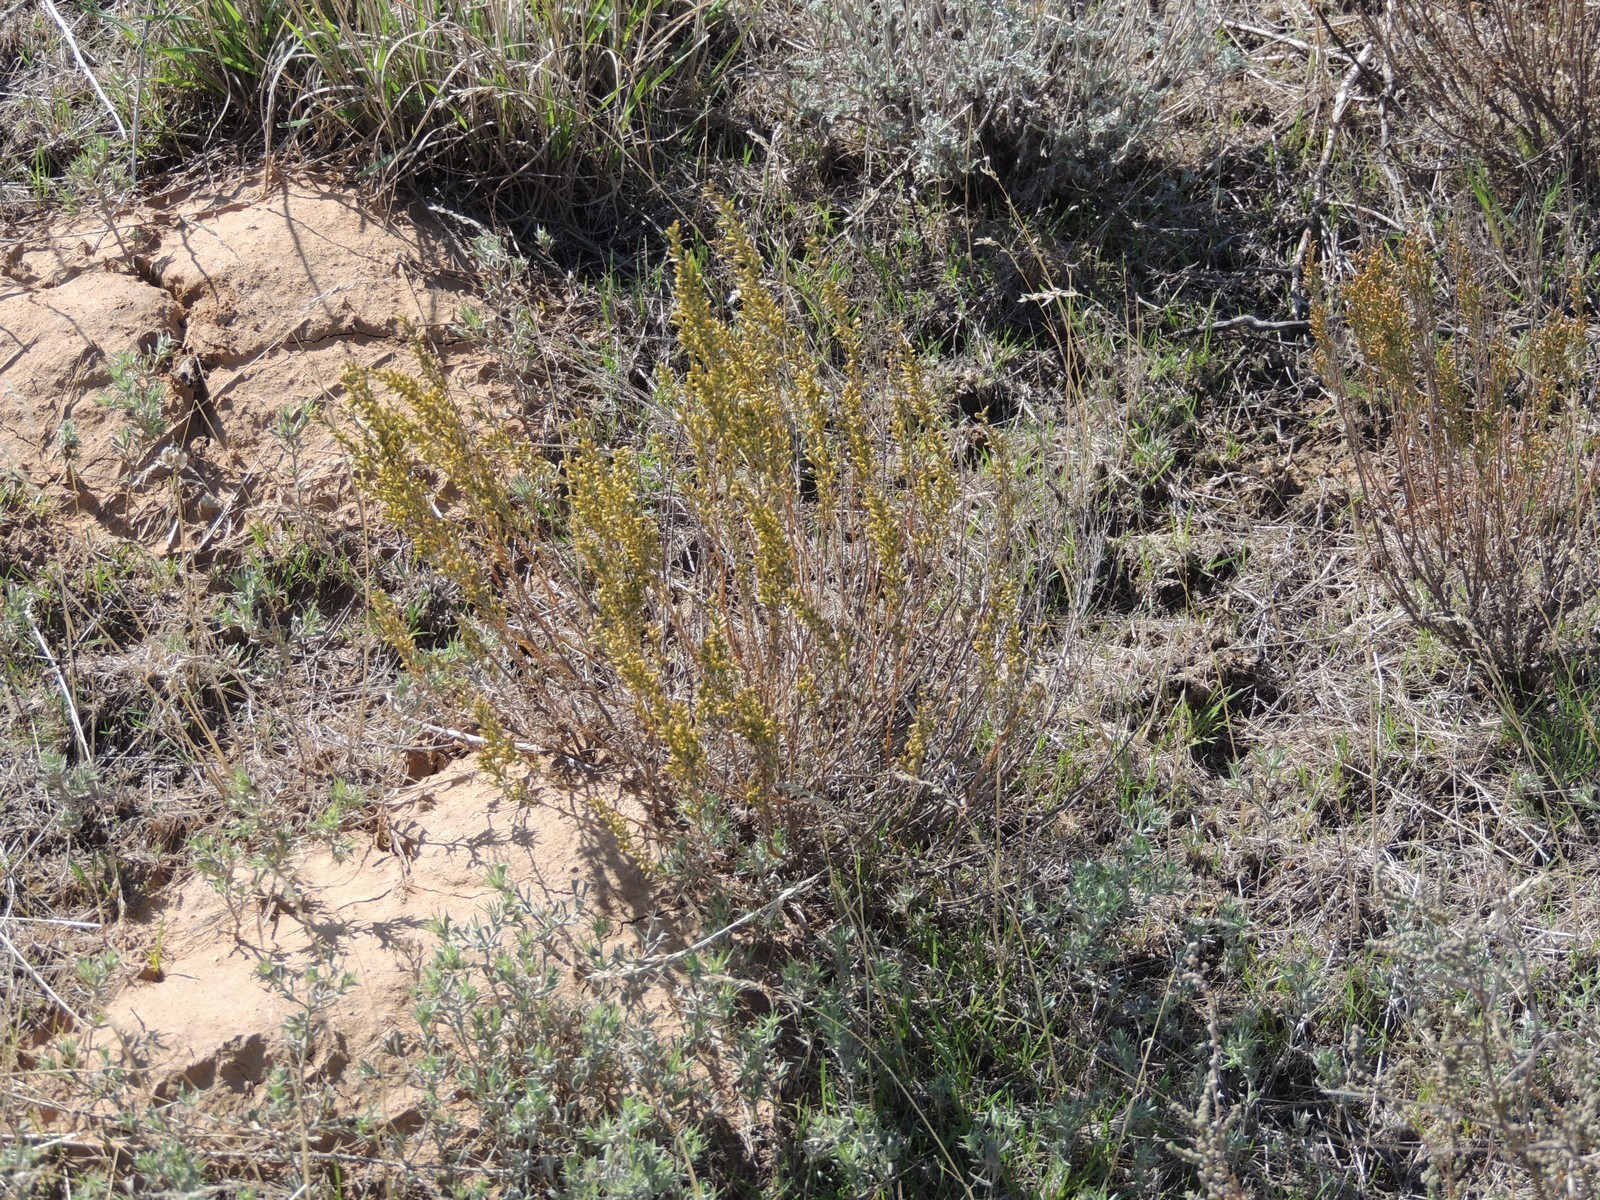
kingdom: Plantae
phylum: Tracheophyta
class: Magnoliopsida
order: Asterales
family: Asteraceae
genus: Artemisia
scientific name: Artemisia pauciflora
